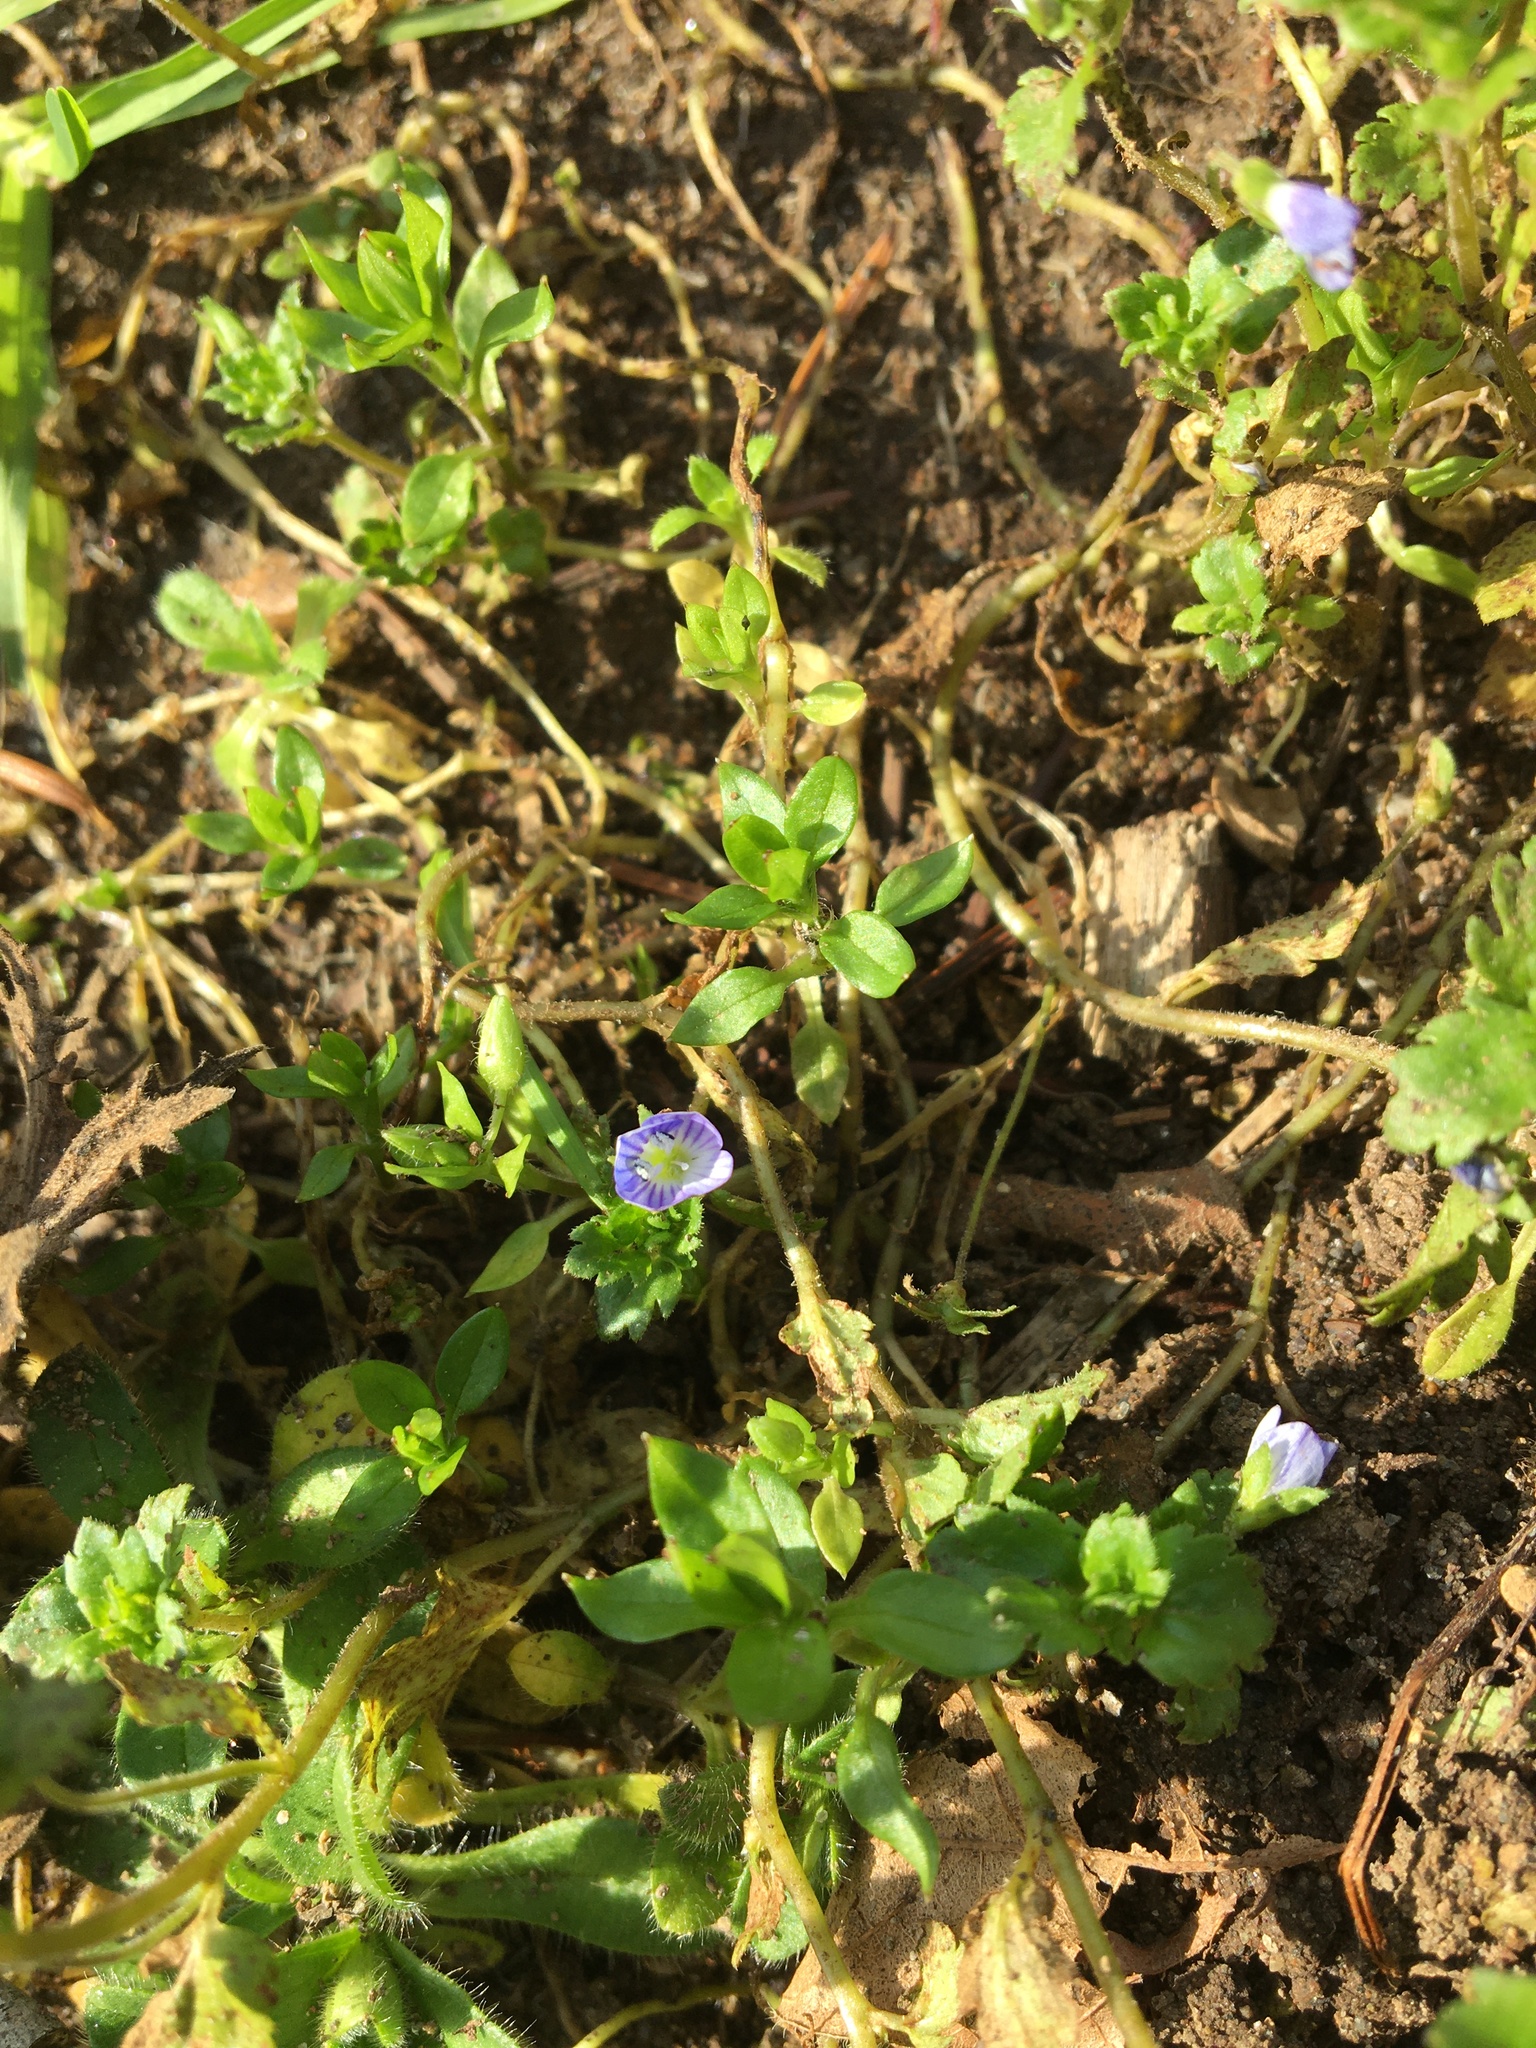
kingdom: Plantae
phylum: Tracheophyta
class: Magnoliopsida
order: Lamiales
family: Plantaginaceae
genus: Veronica
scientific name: Veronica persica
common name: Common field-speedwell
